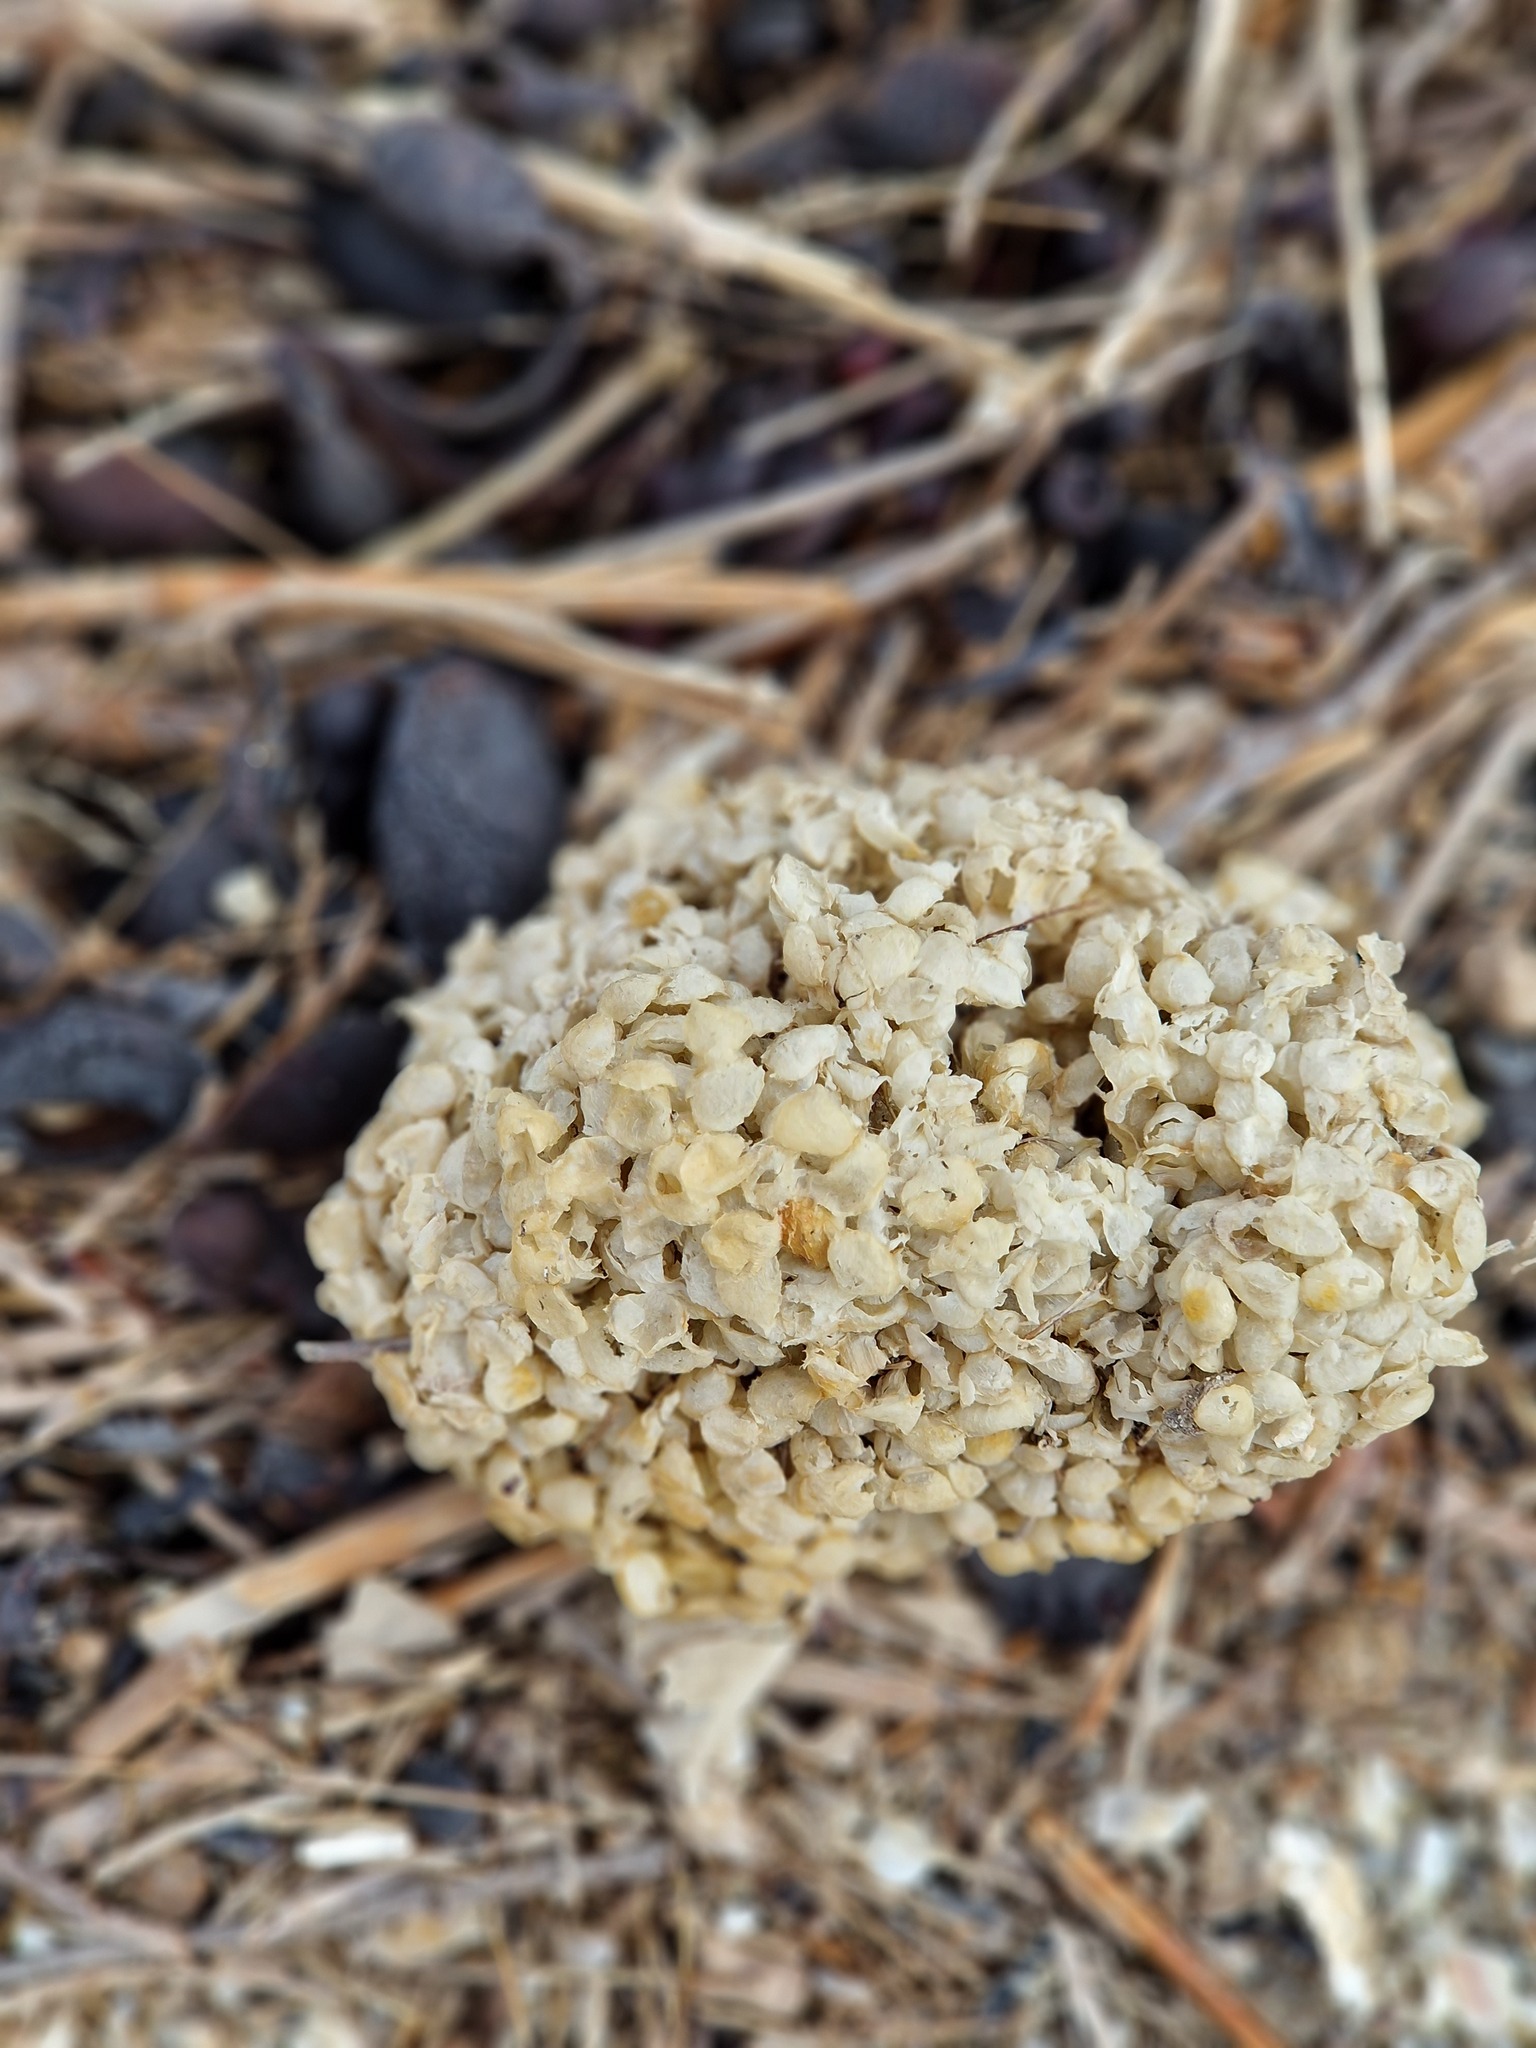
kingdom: Animalia
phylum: Mollusca
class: Gastropoda
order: Neogastropoda
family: Buccinidae
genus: Buccinum
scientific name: Buccinum undatum
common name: Common whelk
